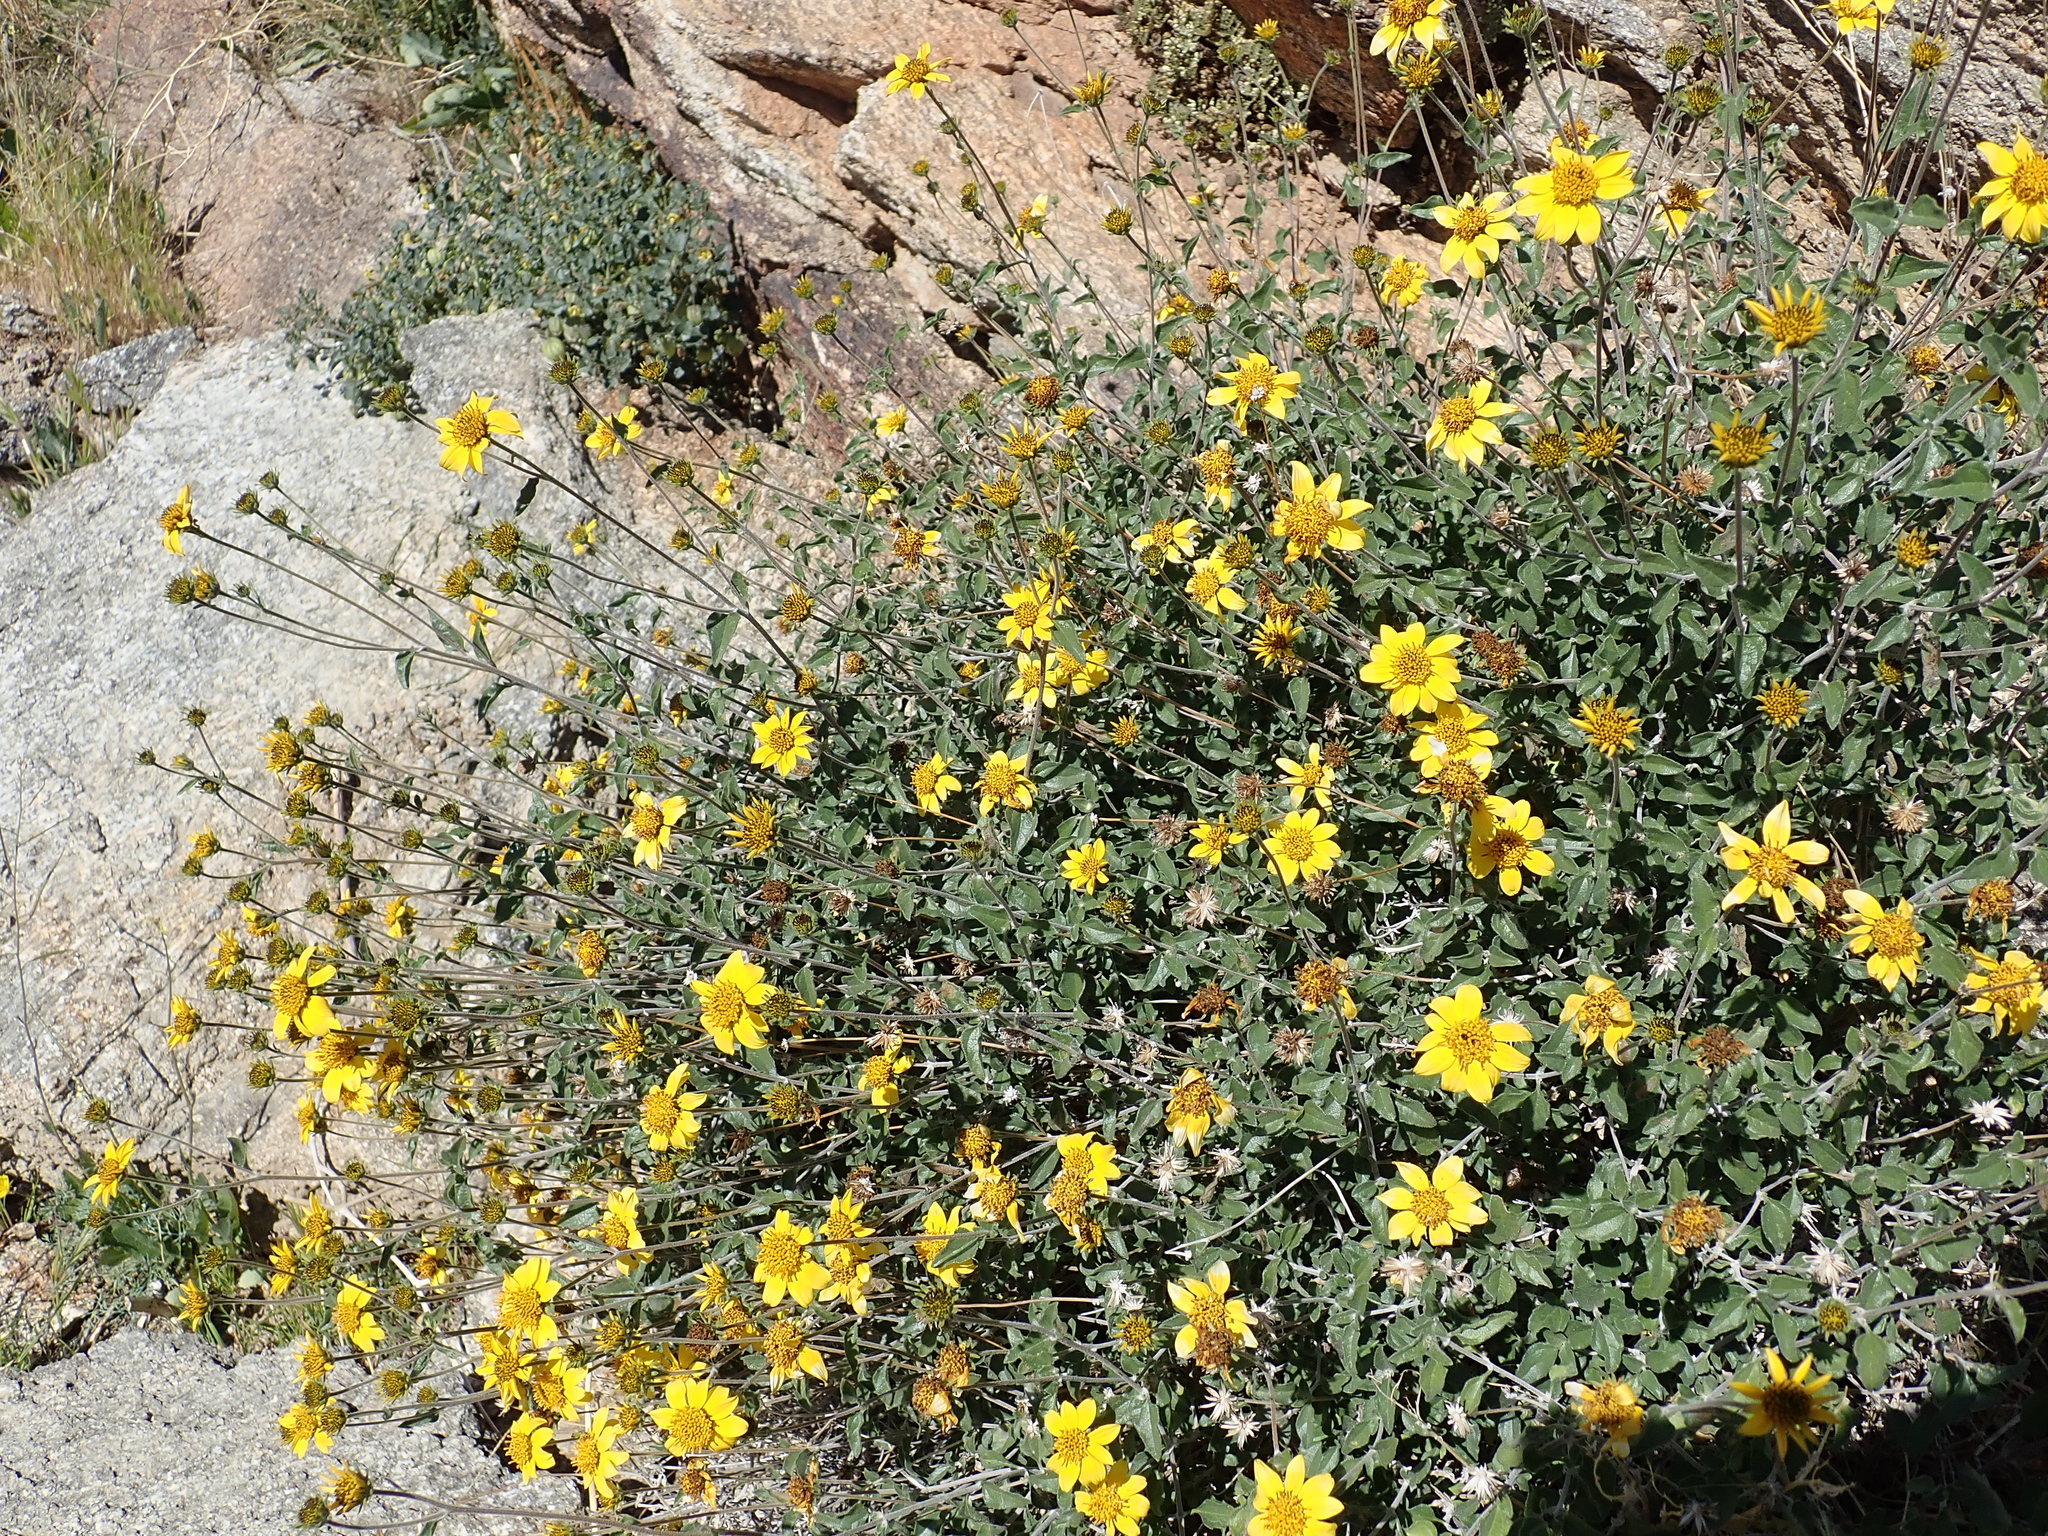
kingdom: Plantae
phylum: Tracheophyta
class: Magnoliopsida
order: Asterales
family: Asteraceae
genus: Bahiopsis
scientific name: Bahiopsis parishii
